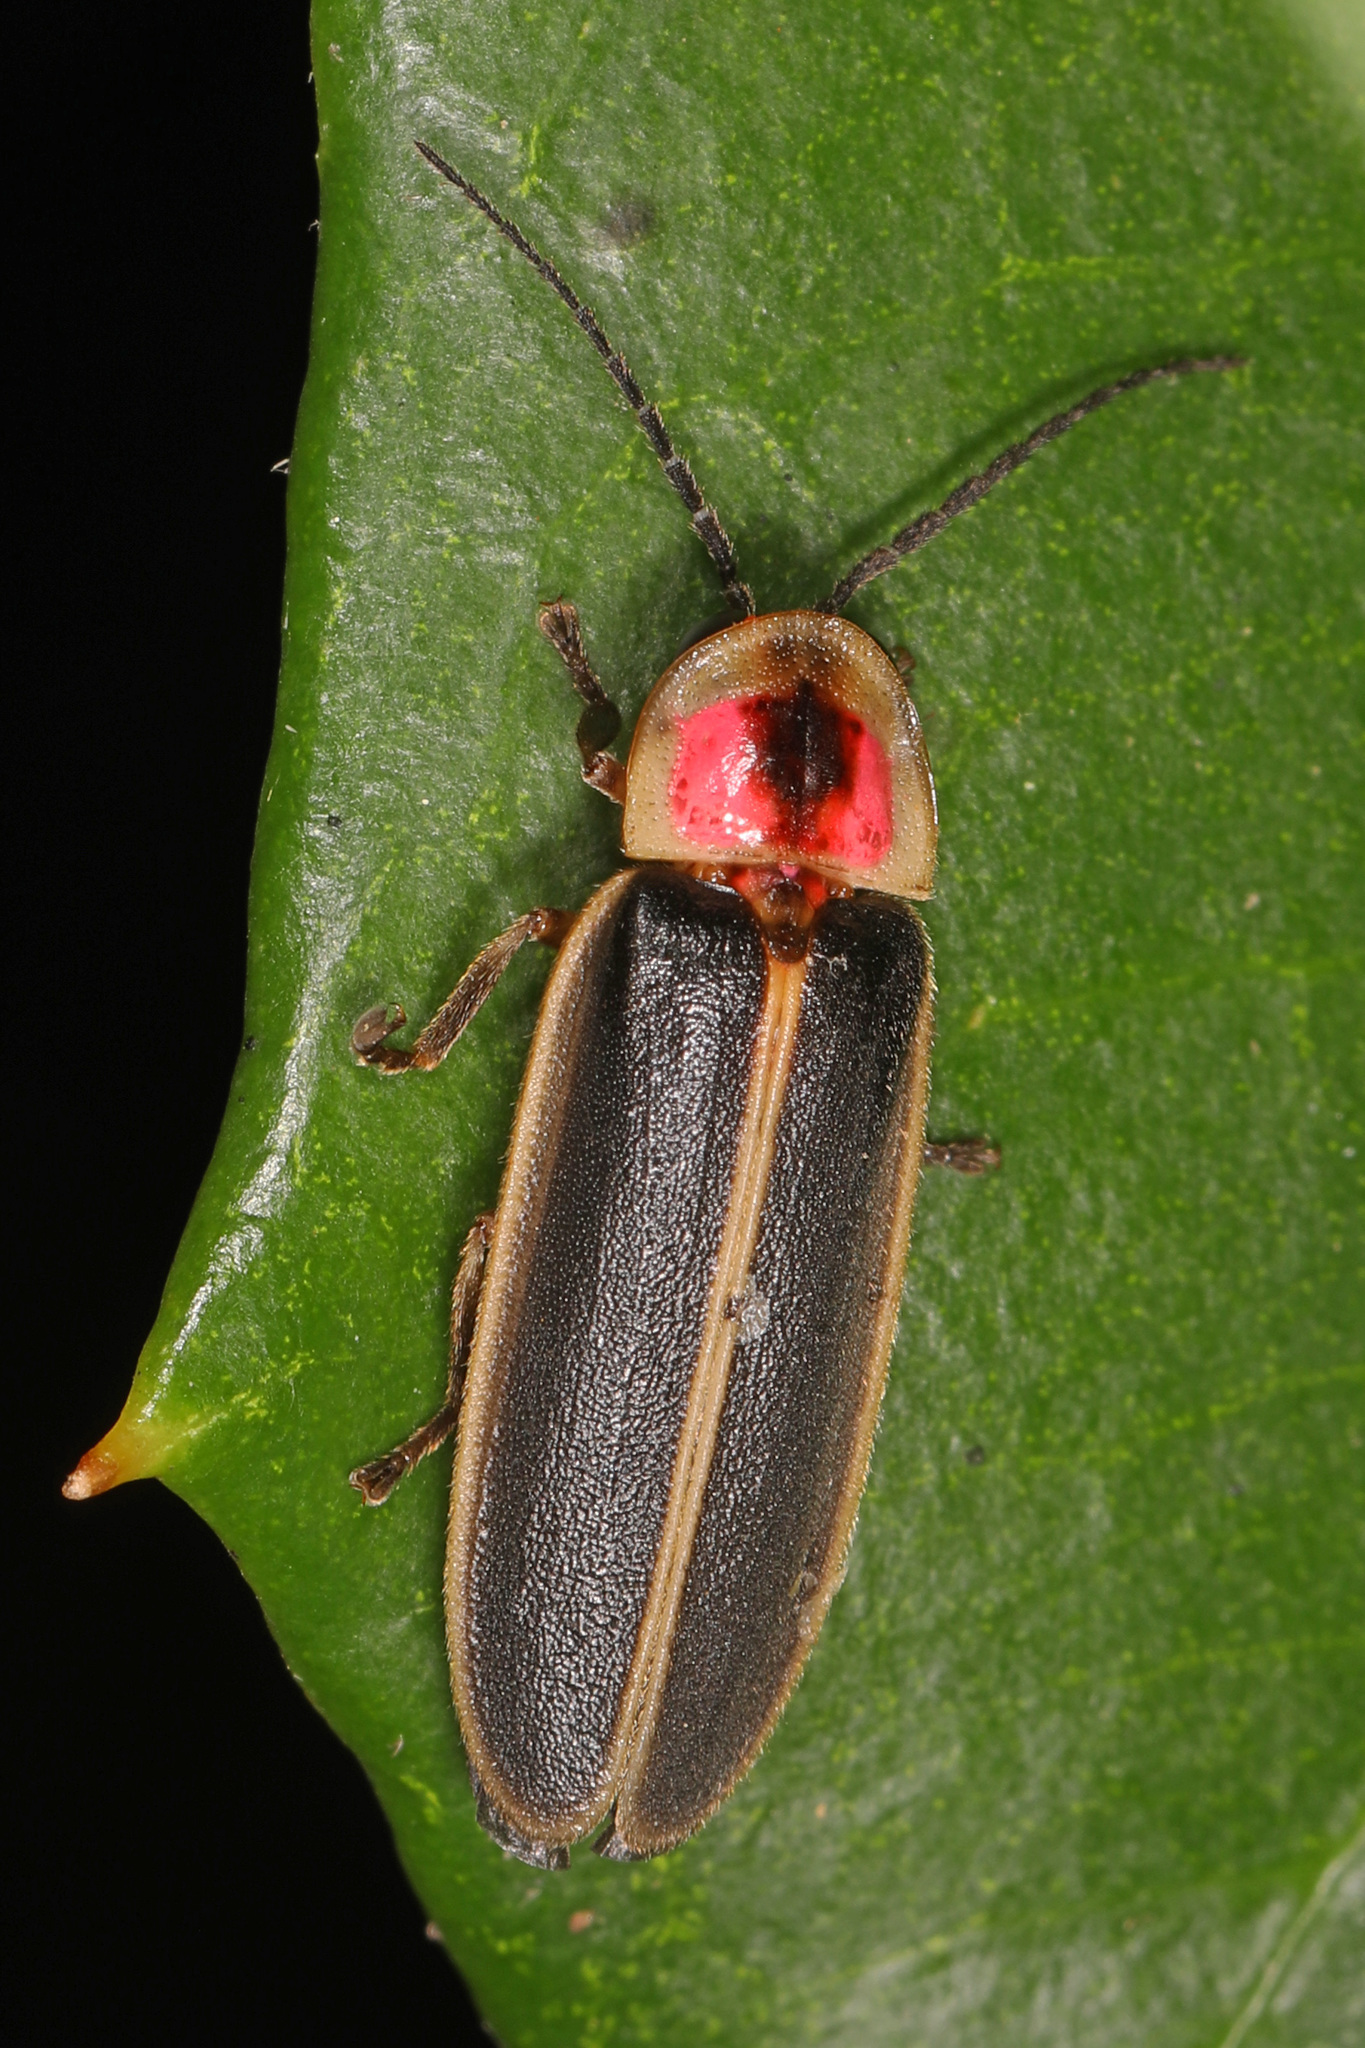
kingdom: Animalia
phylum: Arthropoda
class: Insecta
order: Coleoptera
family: Lampyridae
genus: Photinus
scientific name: Photinus pyralis
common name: Big dipper firefly
